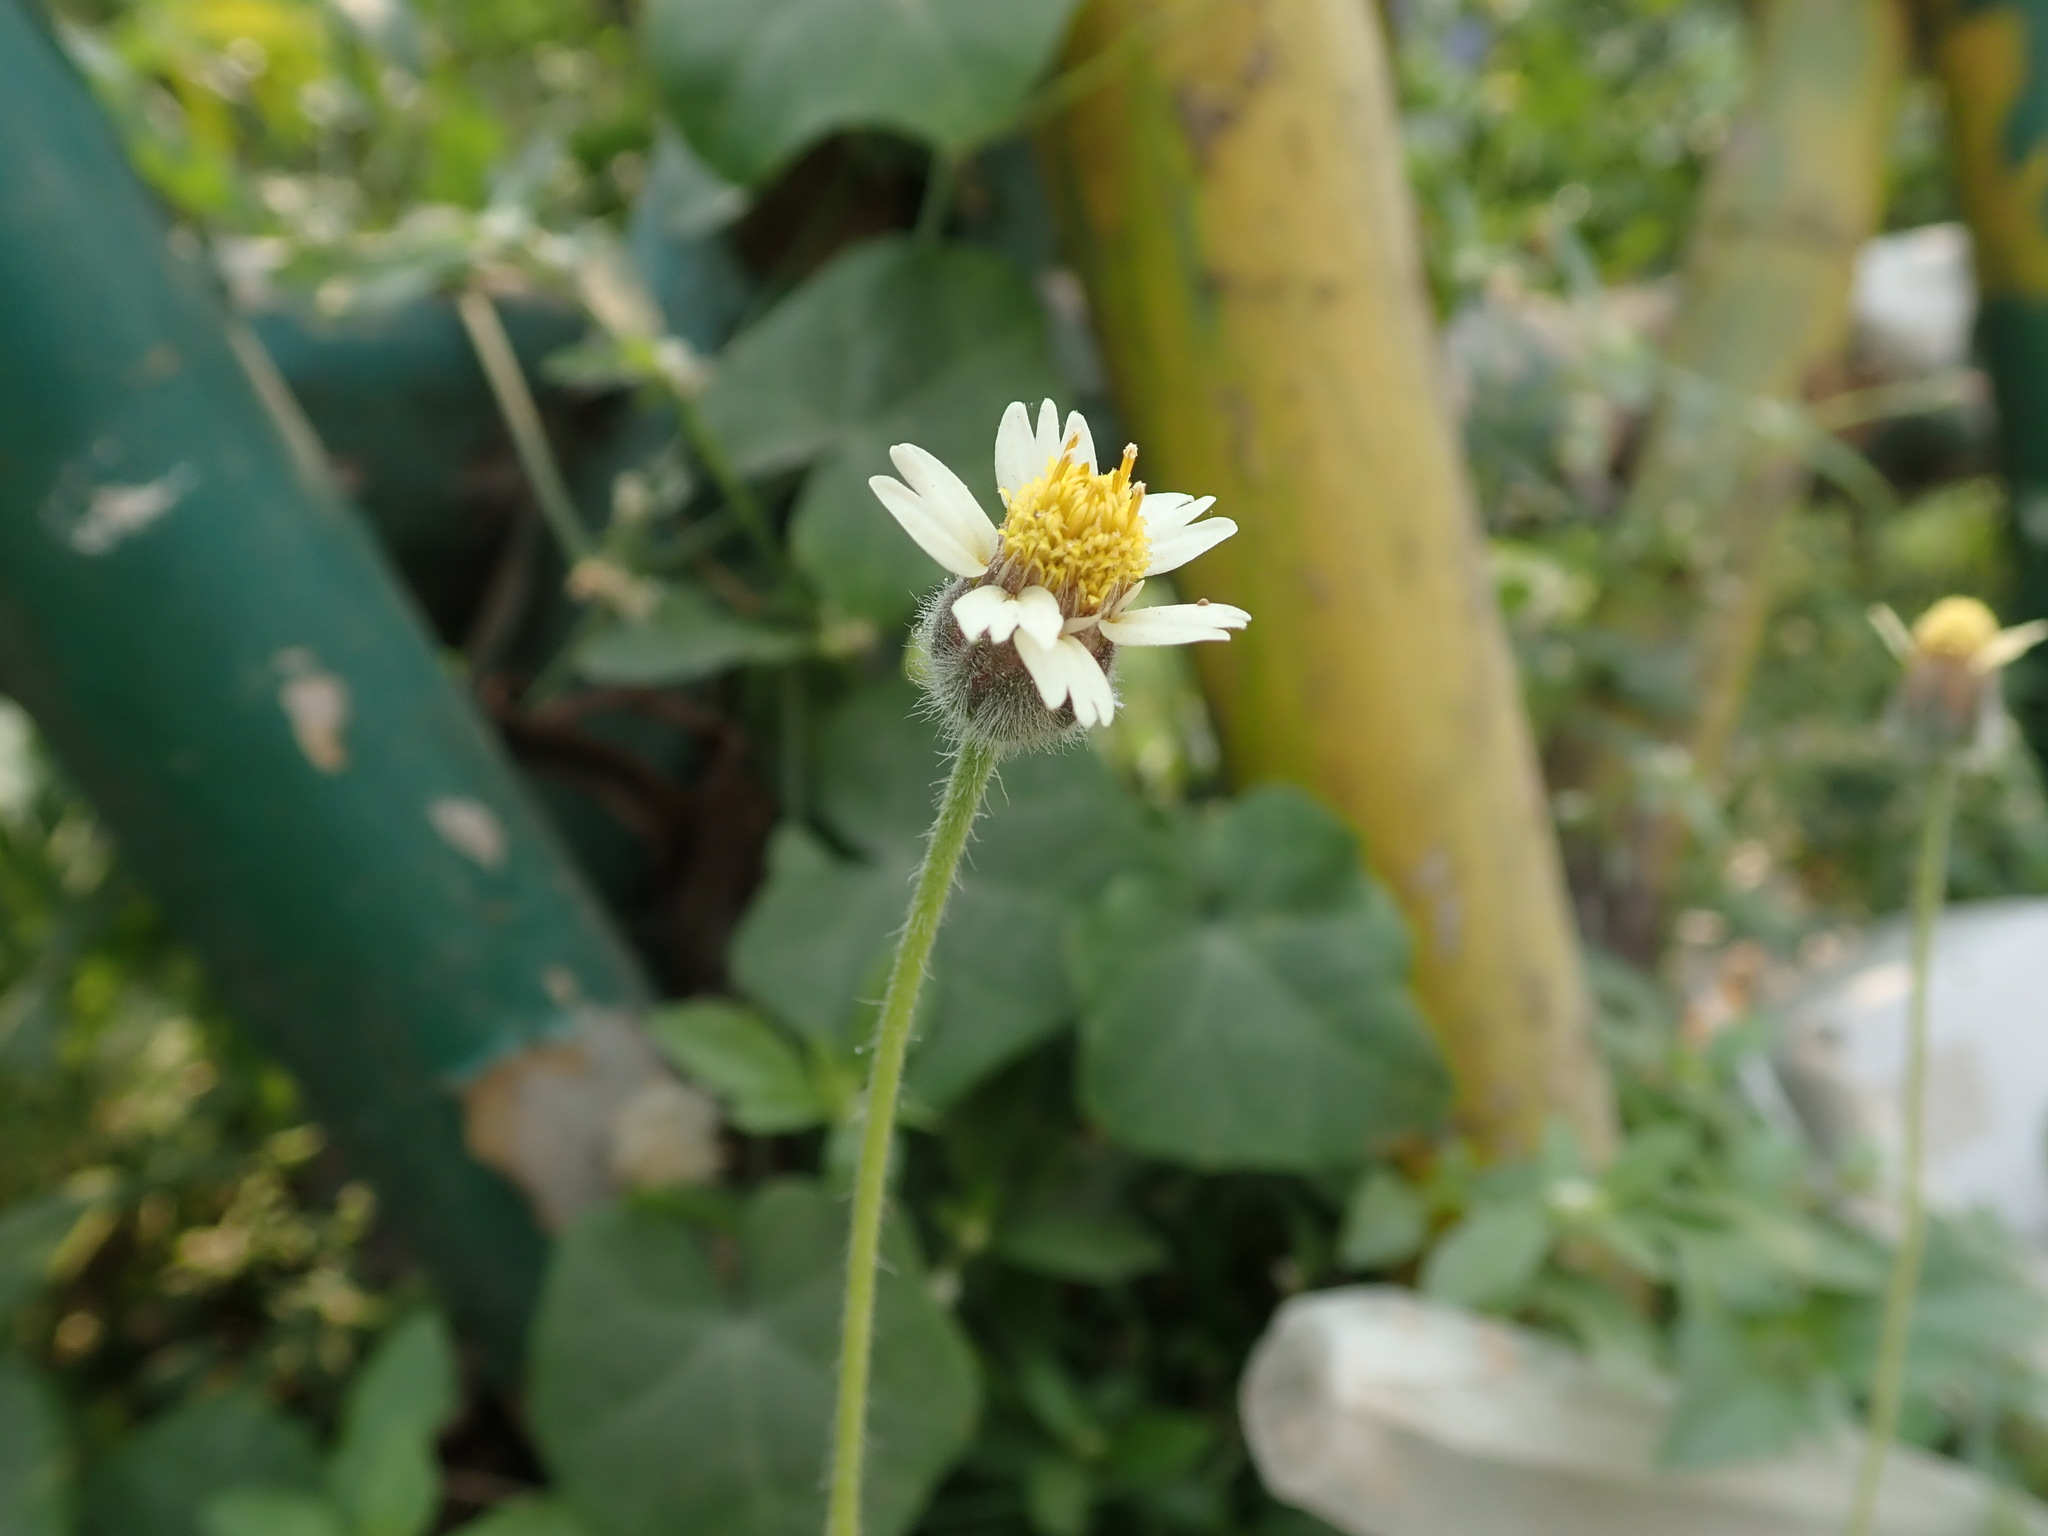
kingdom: Plantae
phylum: Tracheophyta
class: Magnoliopsida
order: Asterales
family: Asteraceae
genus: Tridax
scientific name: Tridax procumbens
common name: Coatbuttons
